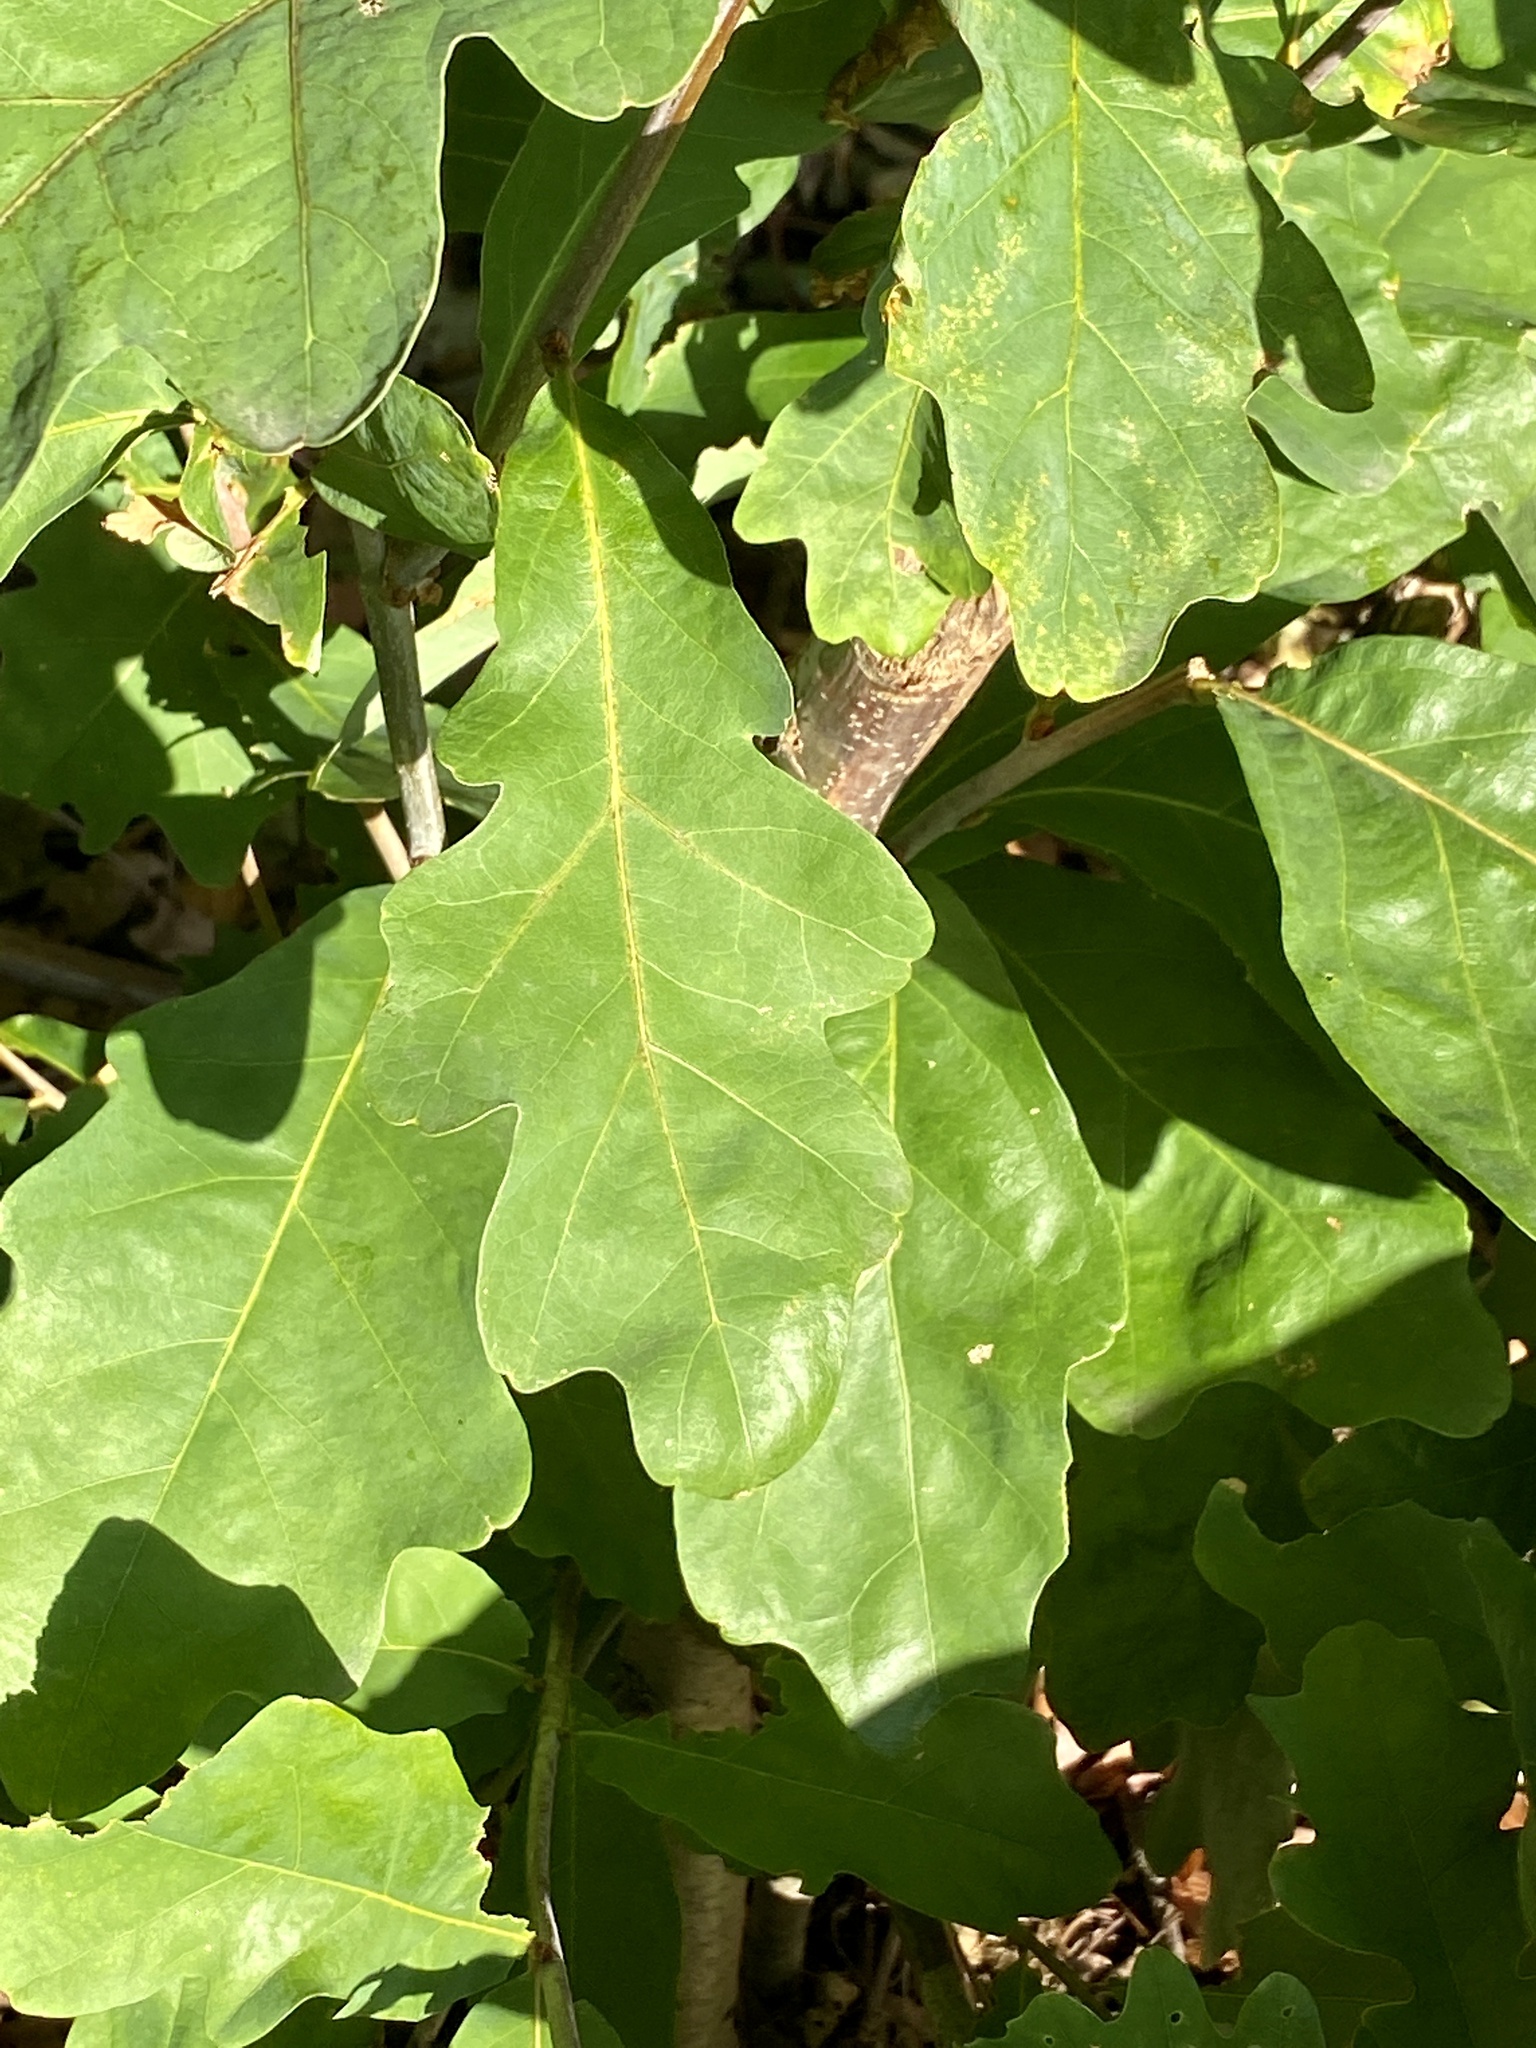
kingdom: Plantae
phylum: Tracheophyta
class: Magnoliopsida
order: Fagales
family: Fagaceae
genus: Quercus
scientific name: Quercus alba
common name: White oak
